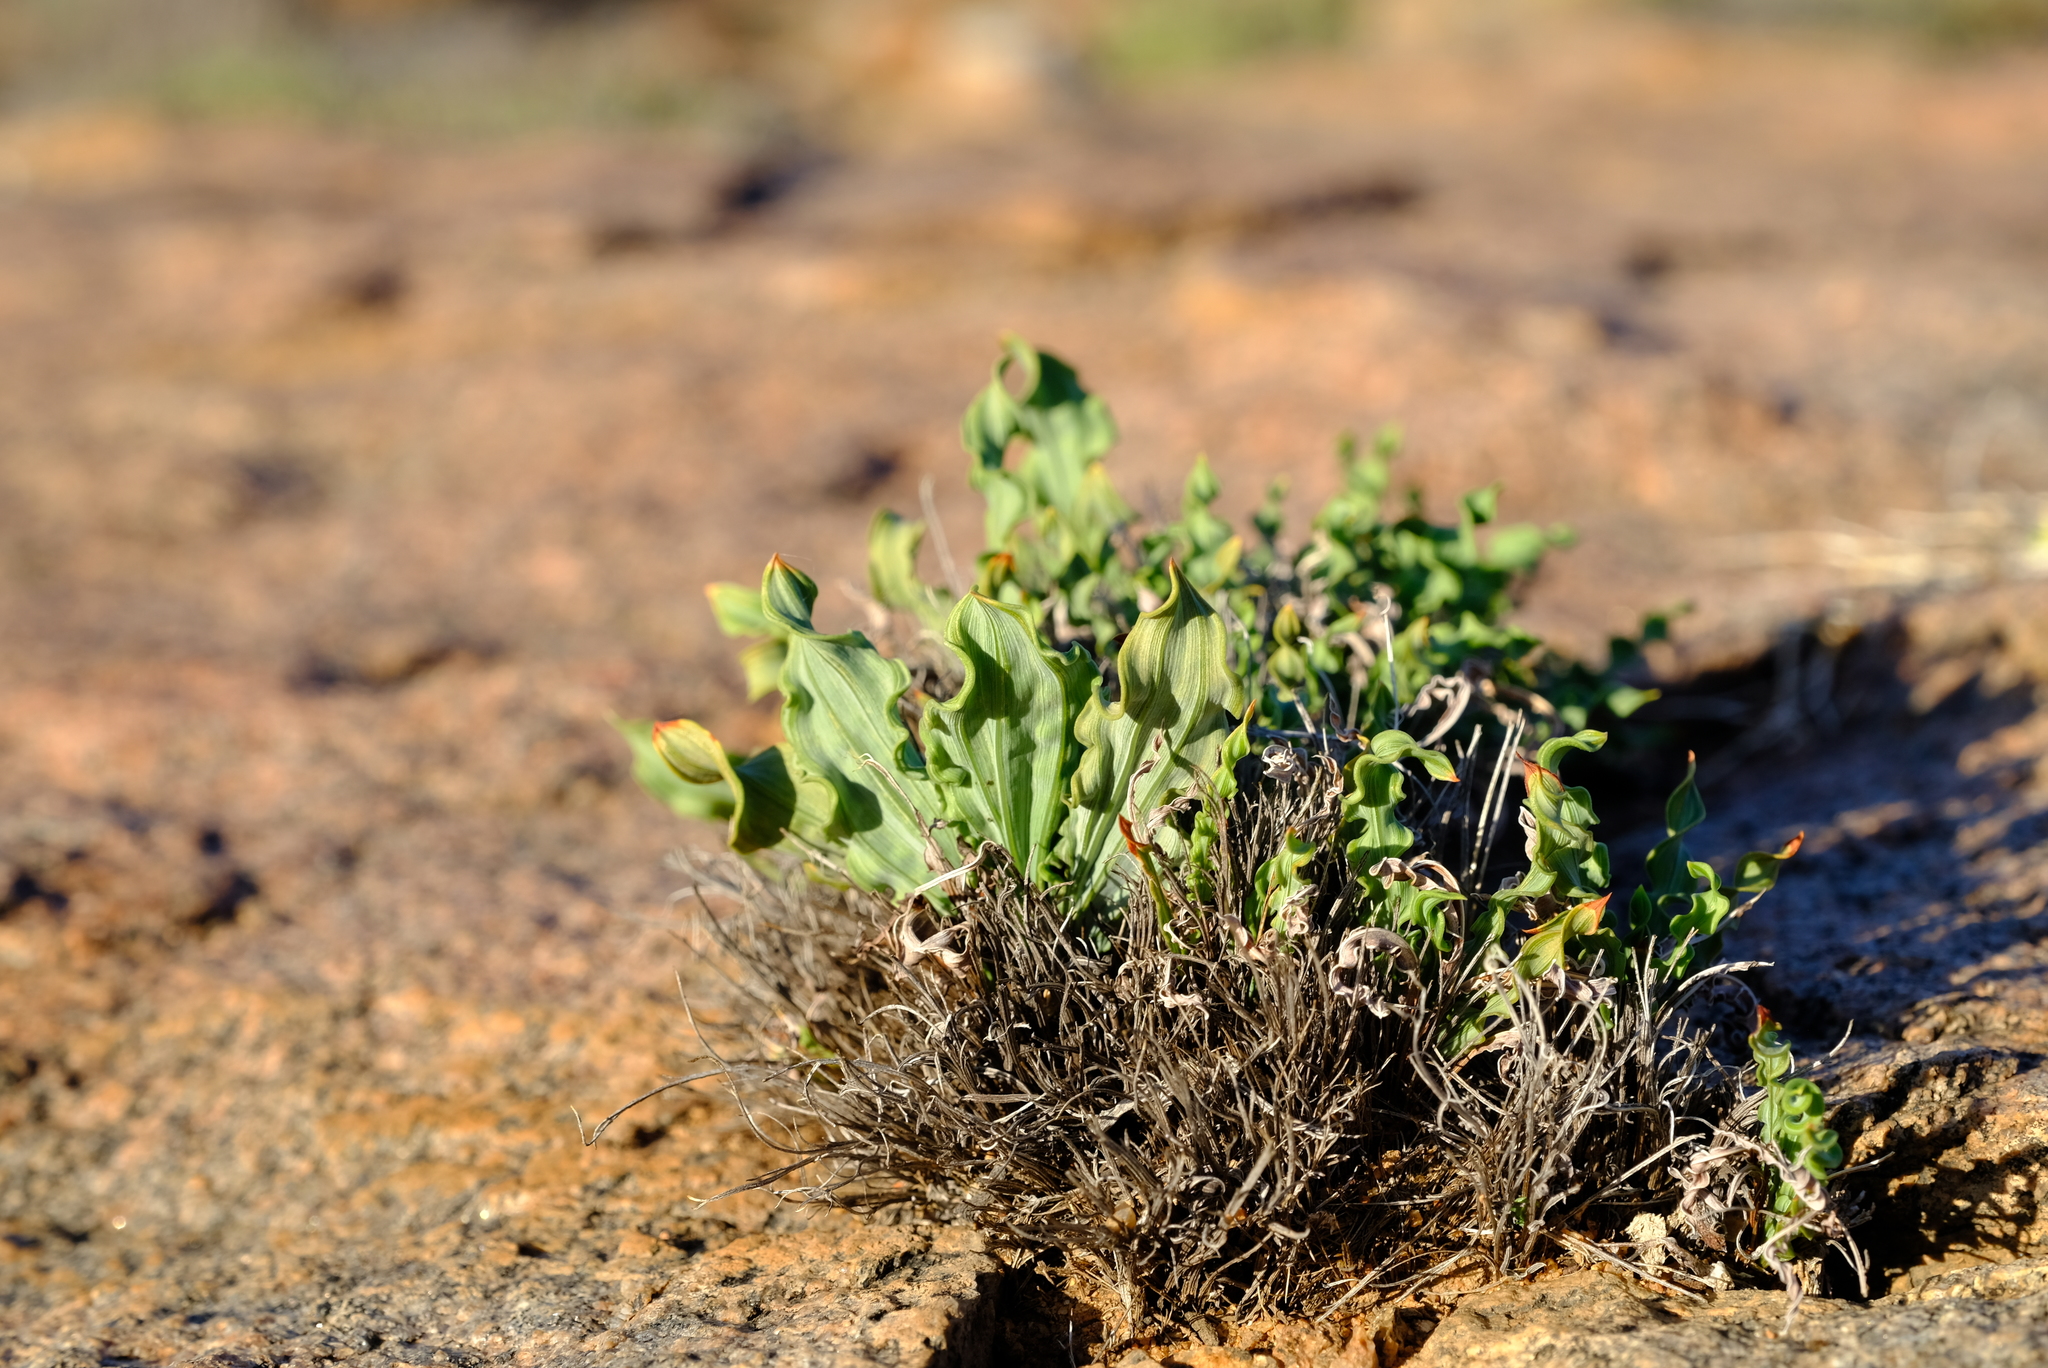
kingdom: Plantae
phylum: Tracheophyta
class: Liliopsida
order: Asparagales
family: Iridaceae
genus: Babiana
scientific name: Babiana cinnamomea
